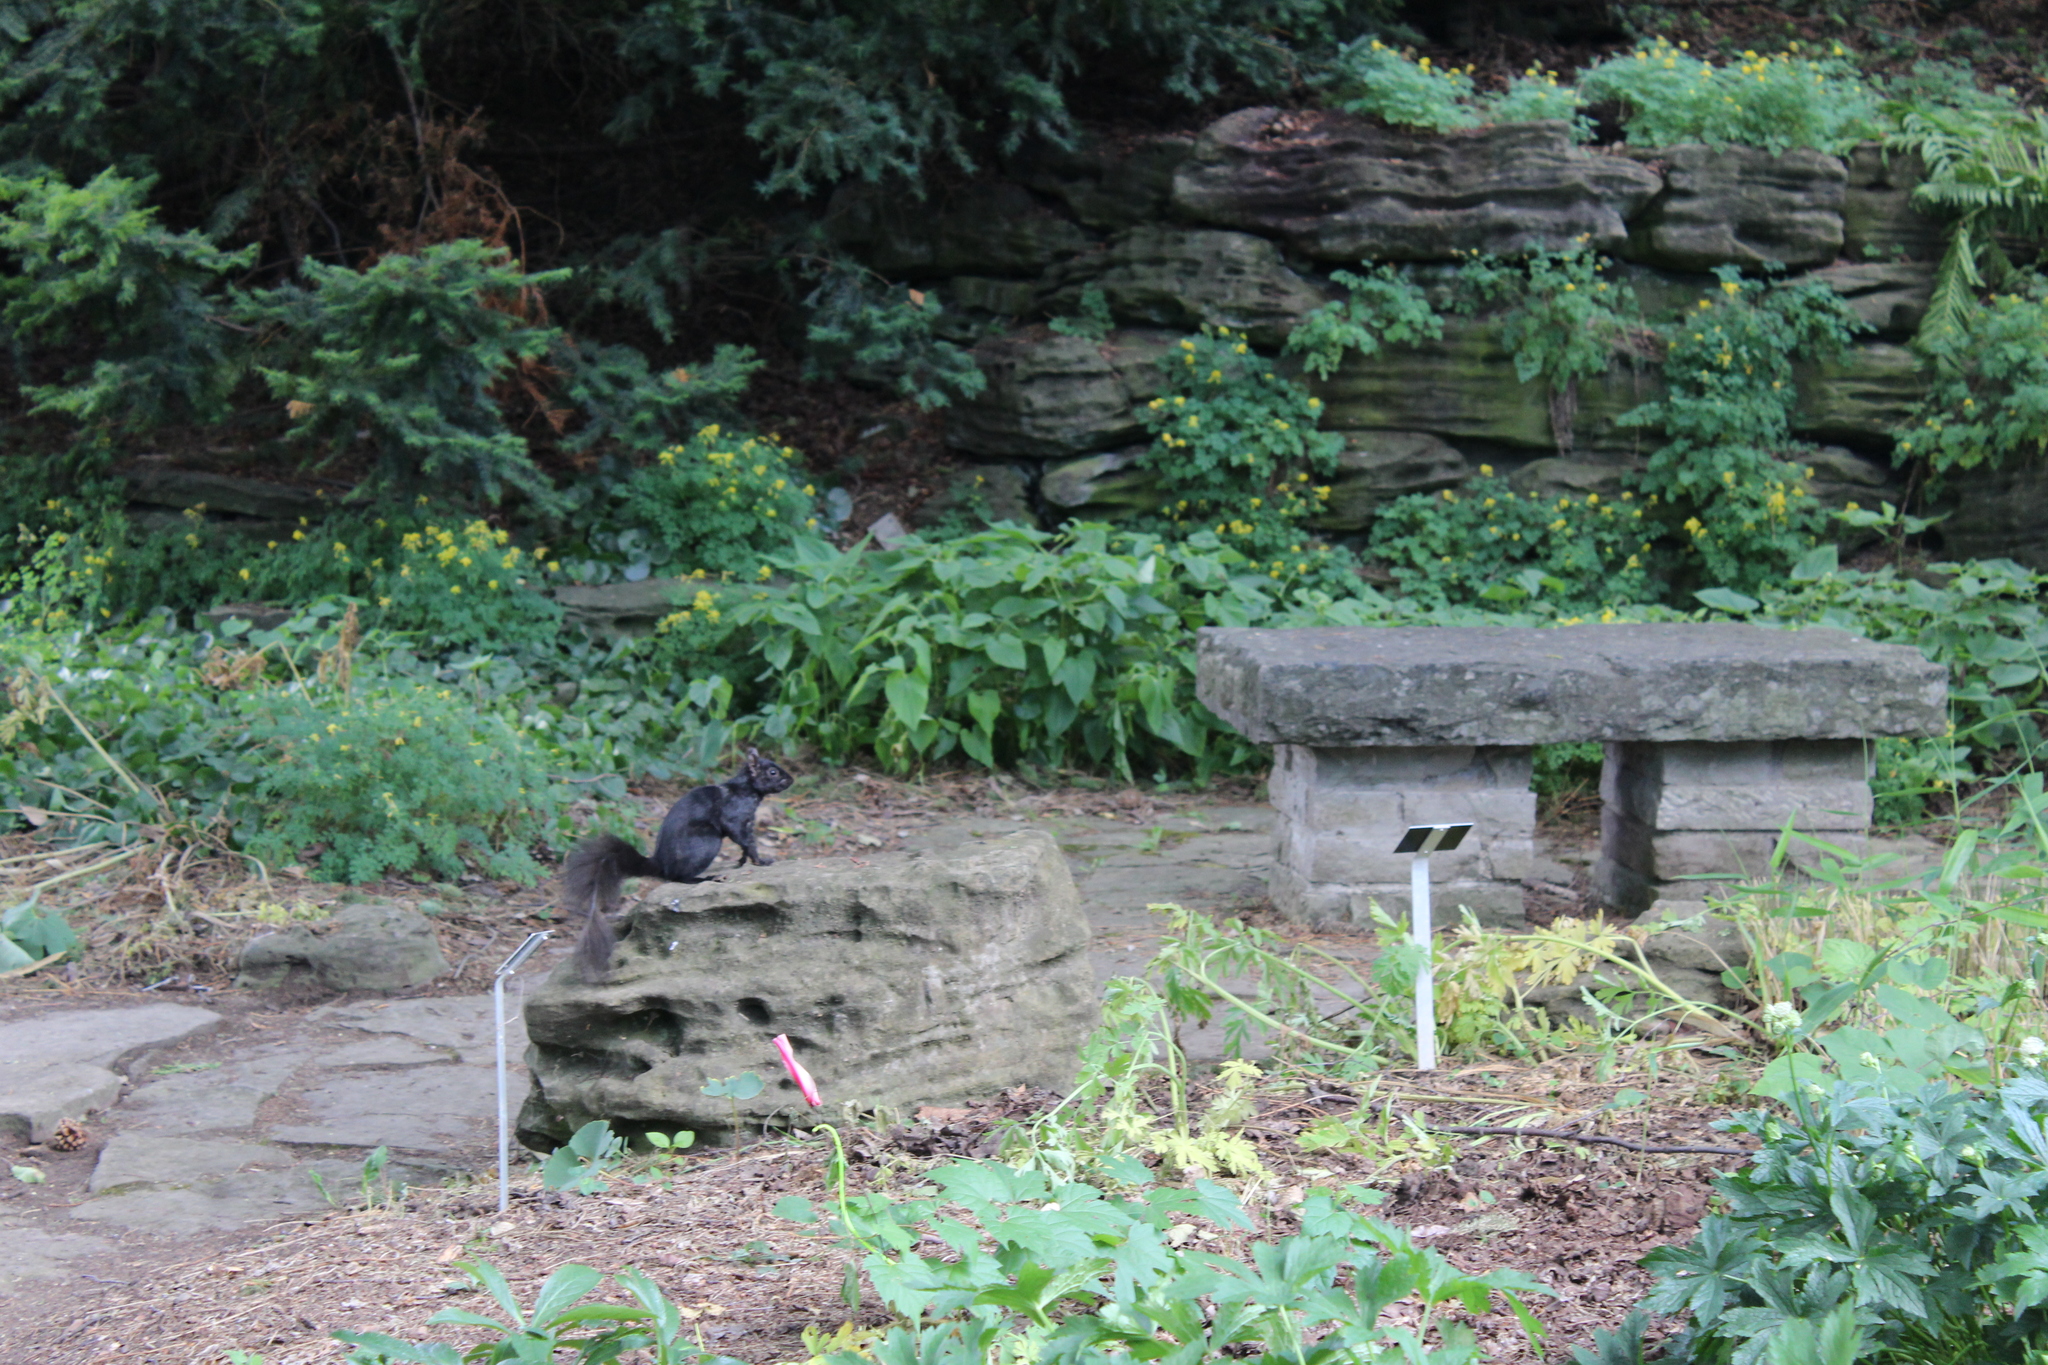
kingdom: Animalia
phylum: Chordata
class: Mammalia
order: Rodentia
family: Sciuridae
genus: Sciurus
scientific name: Sciurus carolinensis
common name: Eastern gray squirrel
